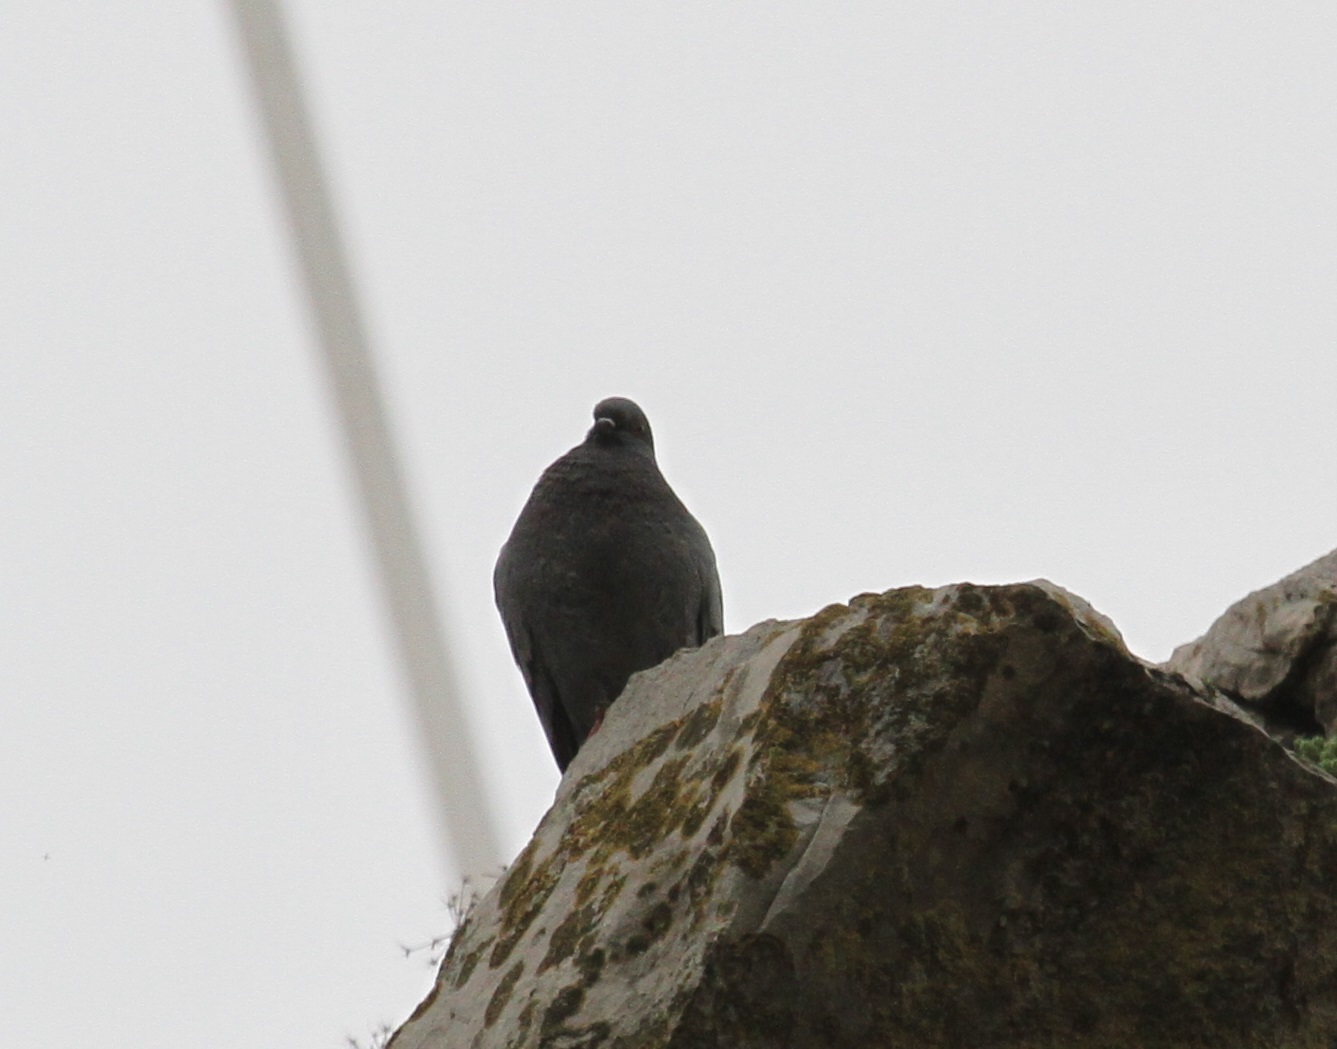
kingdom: Animalia
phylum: Chordata
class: Aves
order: Columbiformes
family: Columbidae
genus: Columba
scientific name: Columba livia
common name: Rock pigeon
